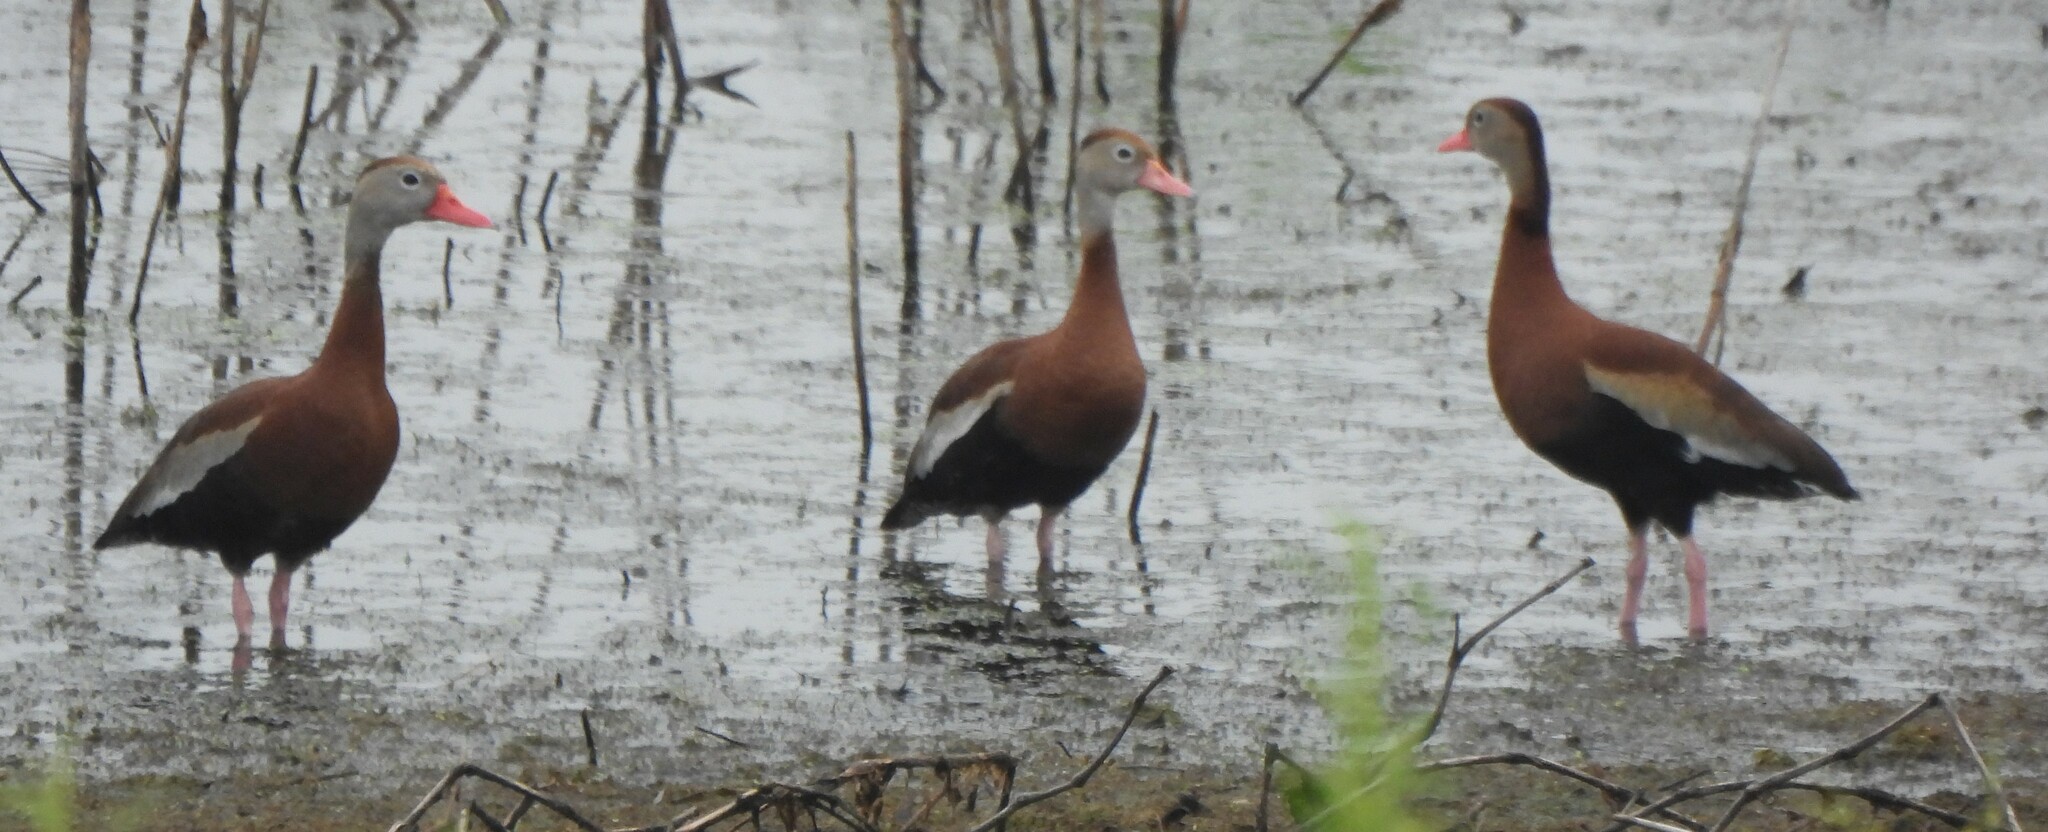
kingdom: Animalia
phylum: Chordata
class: Aves
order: Anseriformes
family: Anatidae
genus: Dendrocygna
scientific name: Dendrocygna autumnalis
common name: Black-bellied whistling duck
